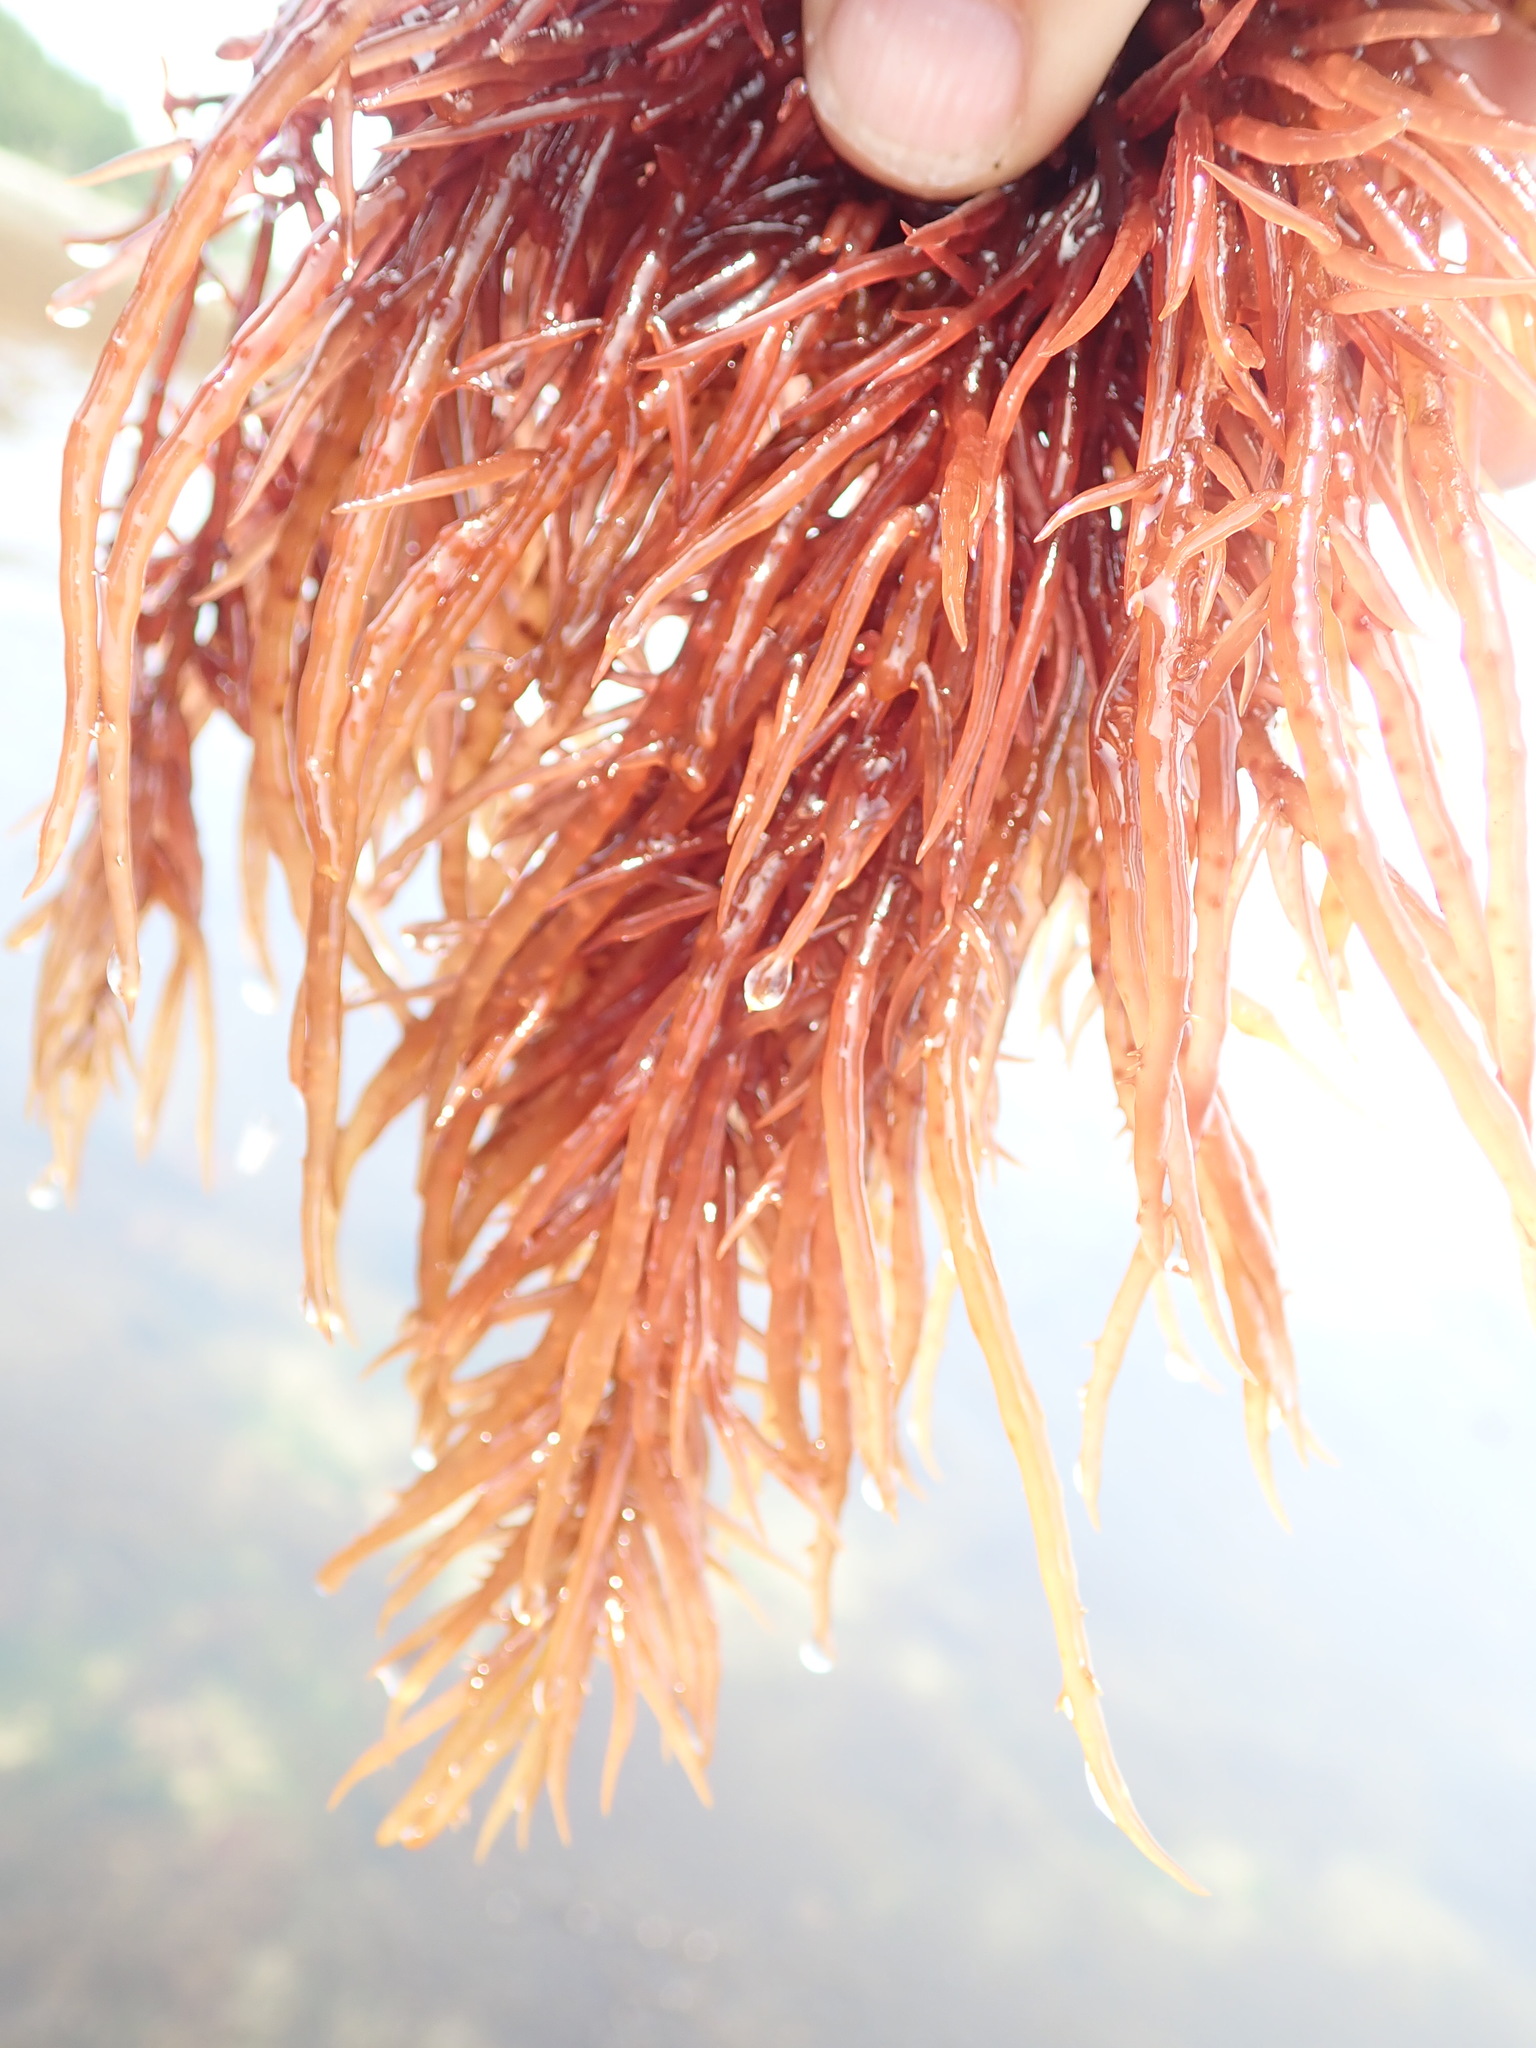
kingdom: Plantae
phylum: Rhodophyta
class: Florideophyceae
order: Gigartinales
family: Solieriaceae
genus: Sarcodiotheca
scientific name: Sarcodiotheca gaudichaudii
